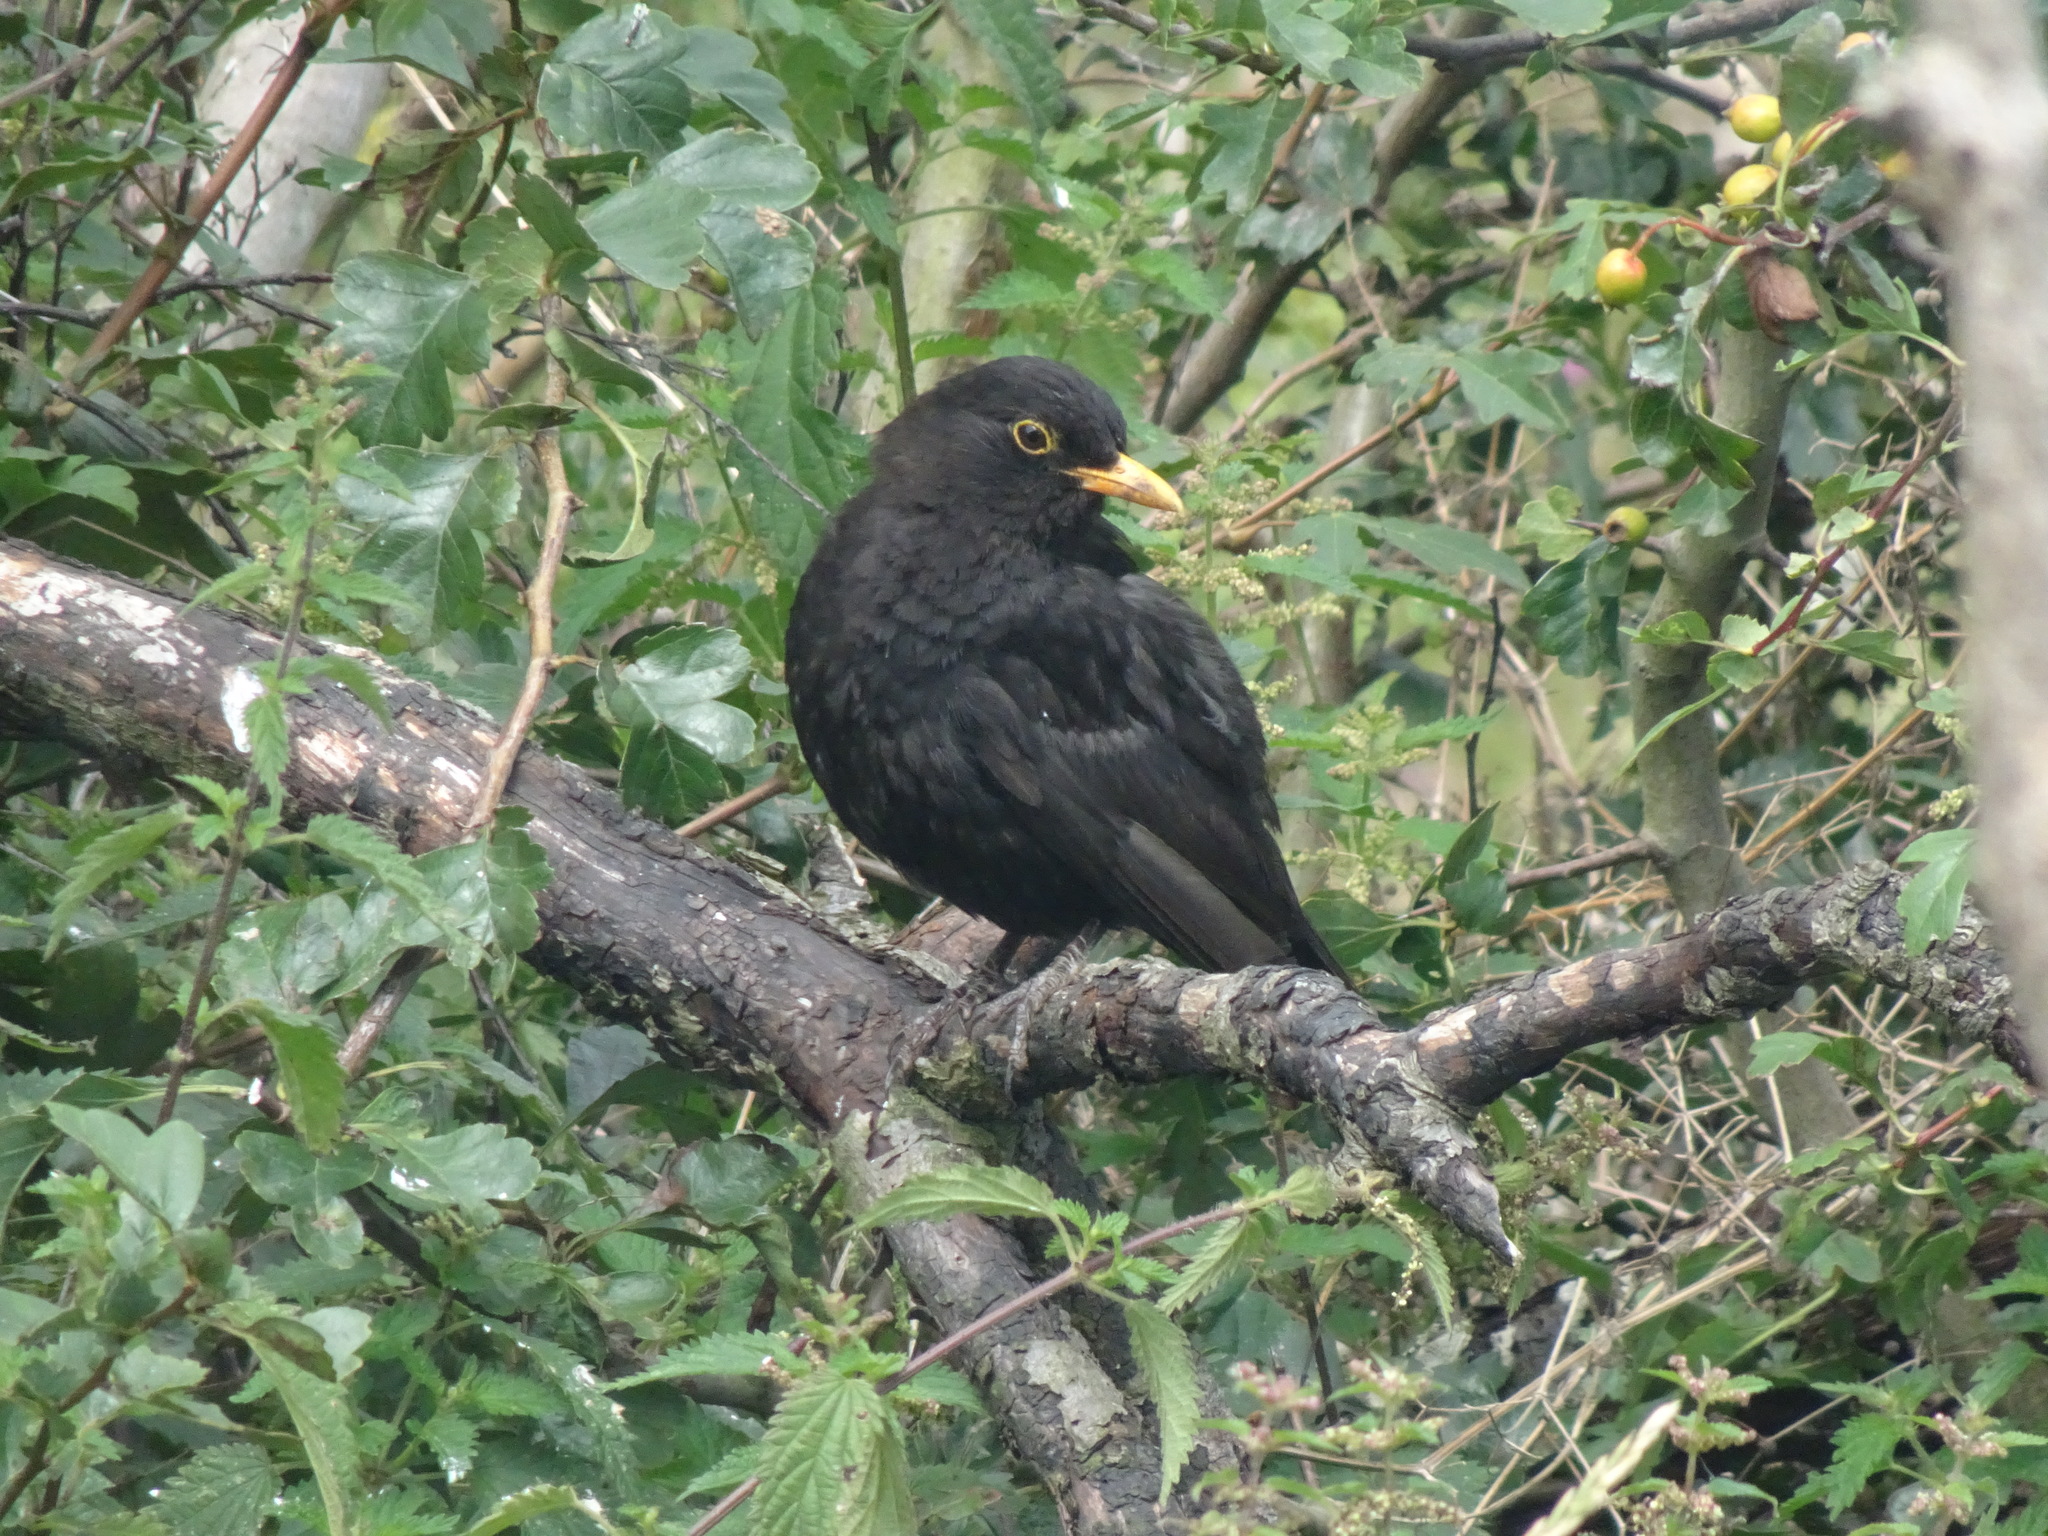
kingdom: Animalia
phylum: Chordata
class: Aves
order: Passeriformes
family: Turdidae
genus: Turdus
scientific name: Turdus merula
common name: Common blackbird
